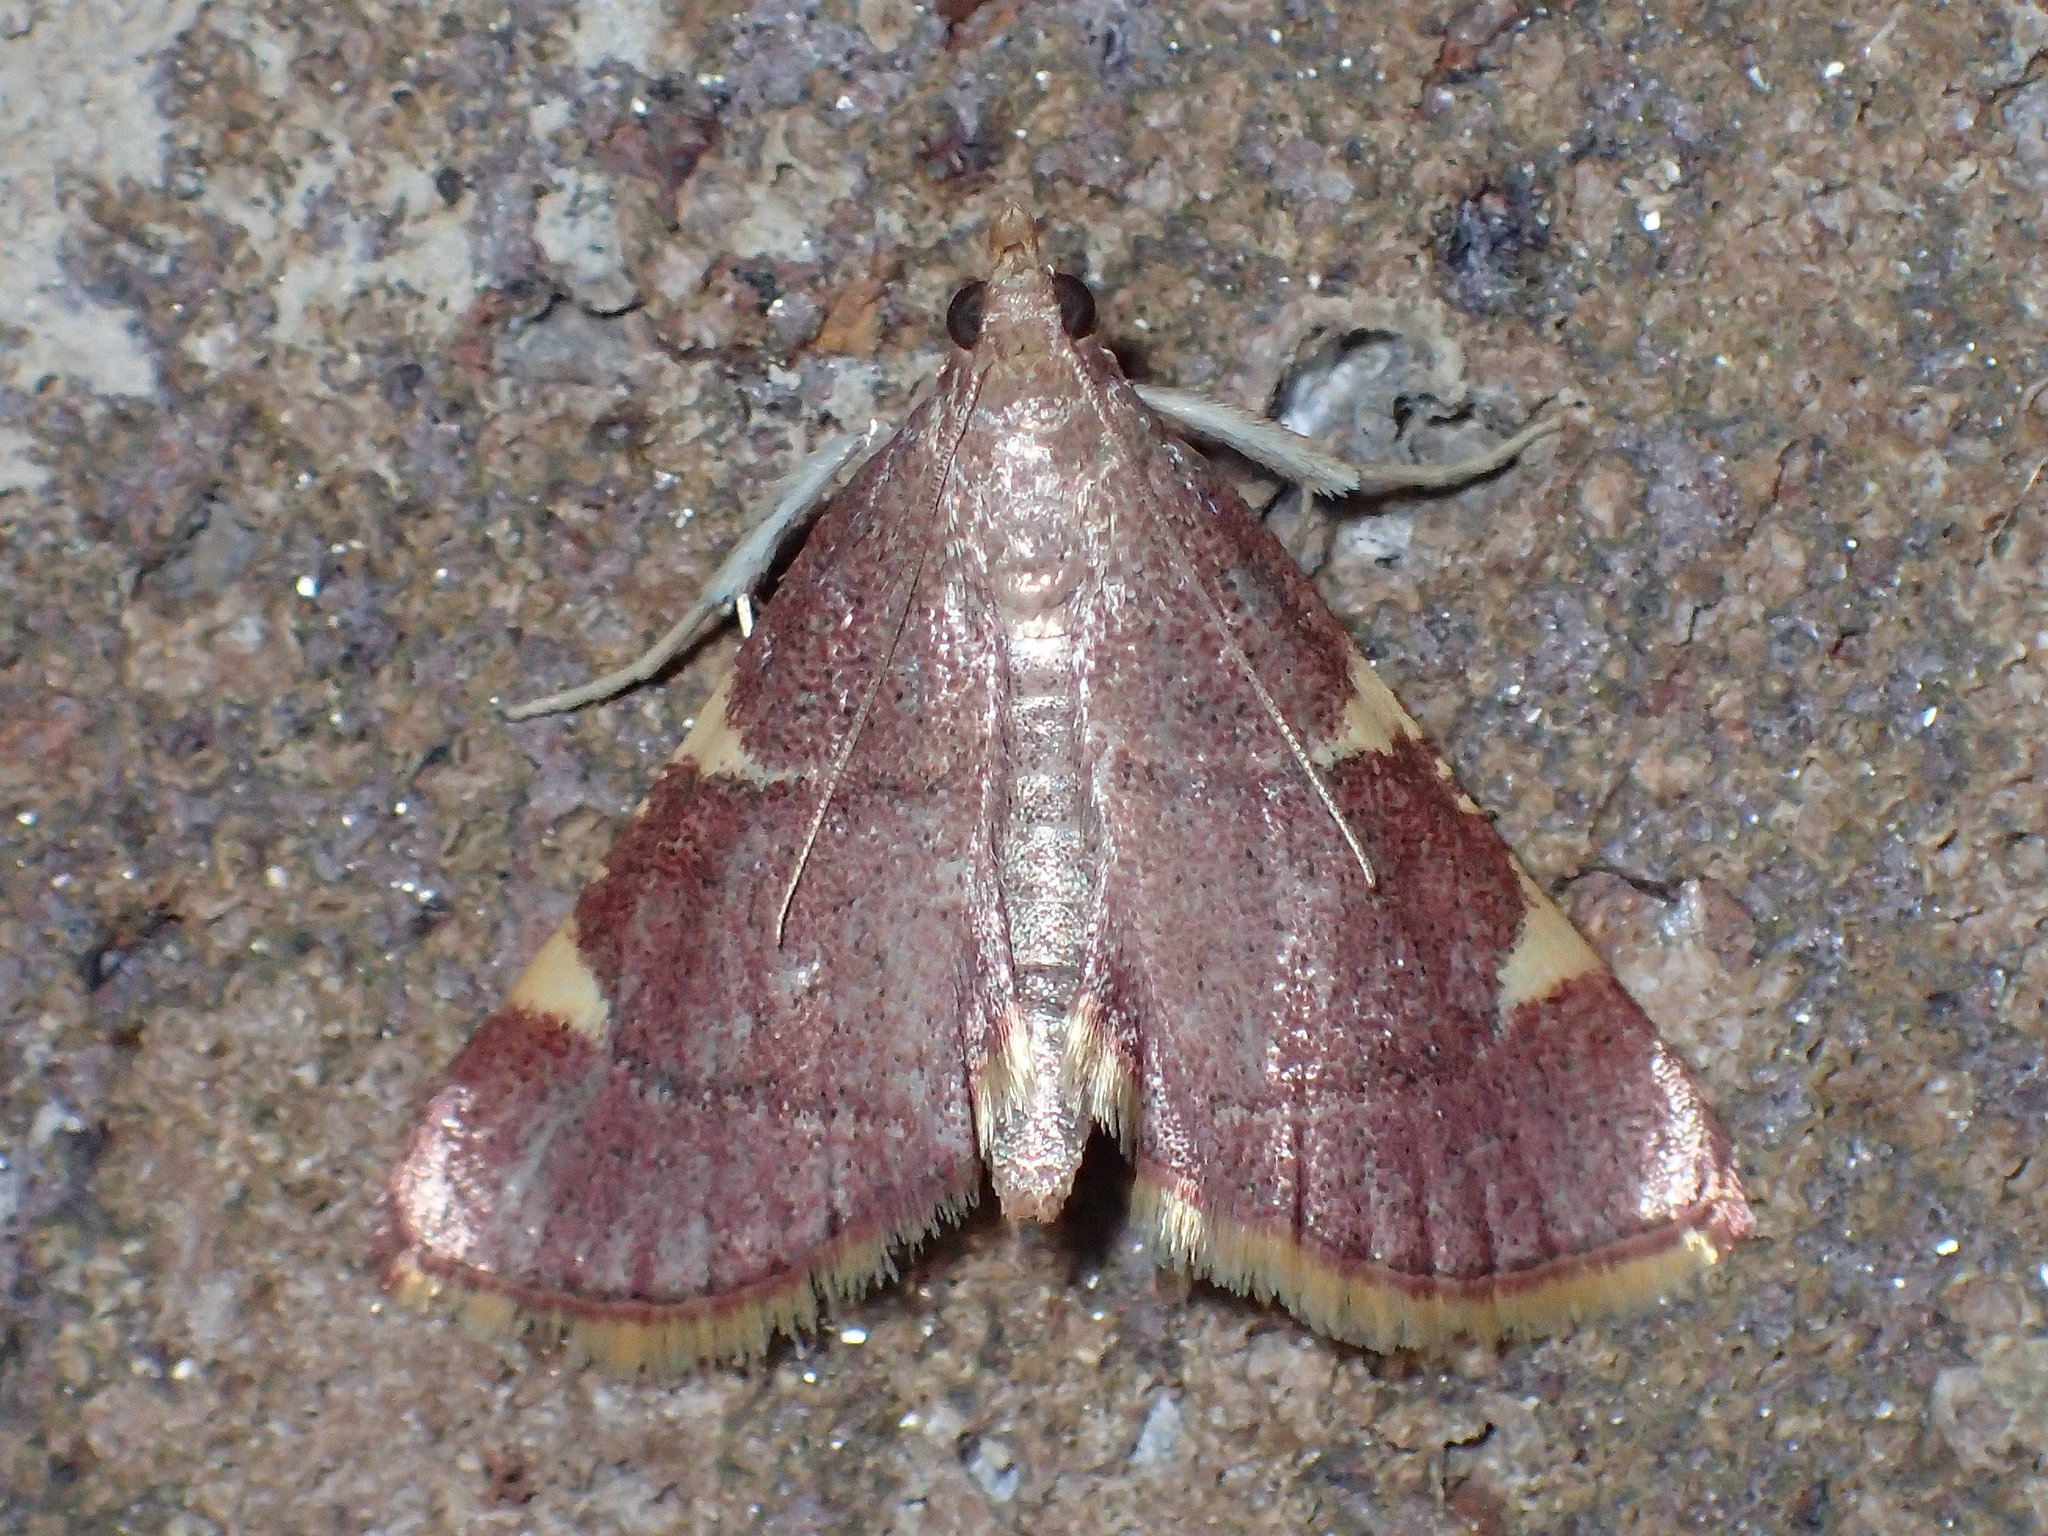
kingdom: Animalia
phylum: Arthropoda
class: Insecta
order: Lepidoptera
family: Pyralidae
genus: Hypsopygia
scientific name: Hypsopygia olinalis
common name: Yellow-fringed dolichomia moth
